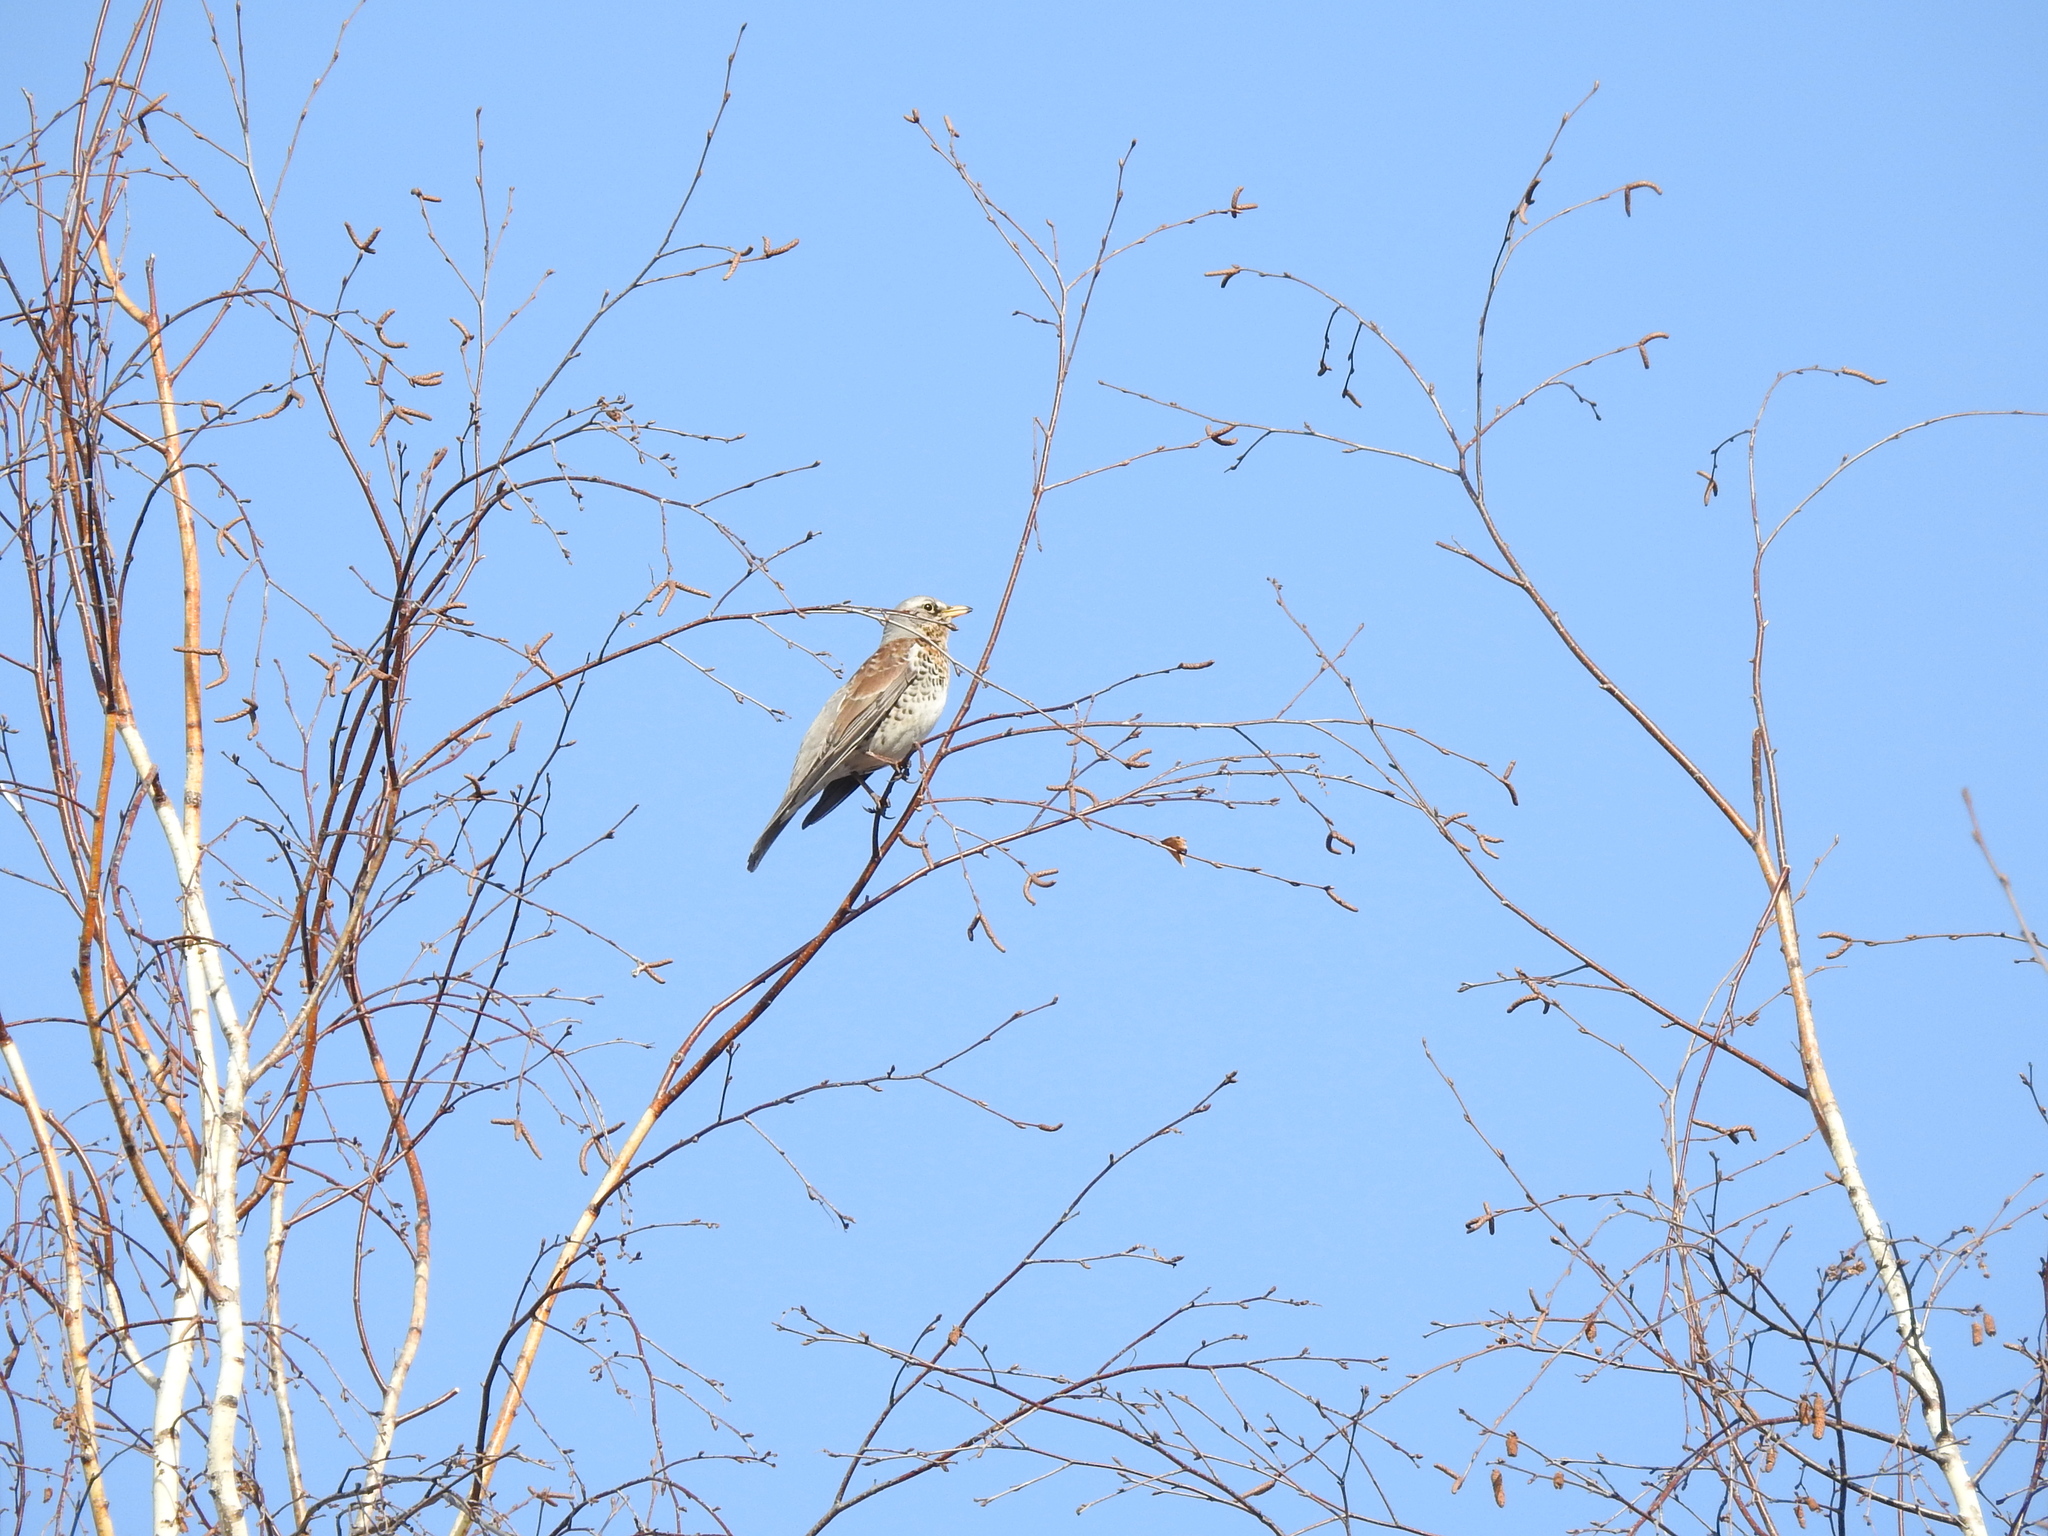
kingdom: Animalia
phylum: Chordata
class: Aves
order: Passeriformes
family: Turdidae
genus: Turdus
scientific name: Turdus pilaris
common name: Fieldfare
